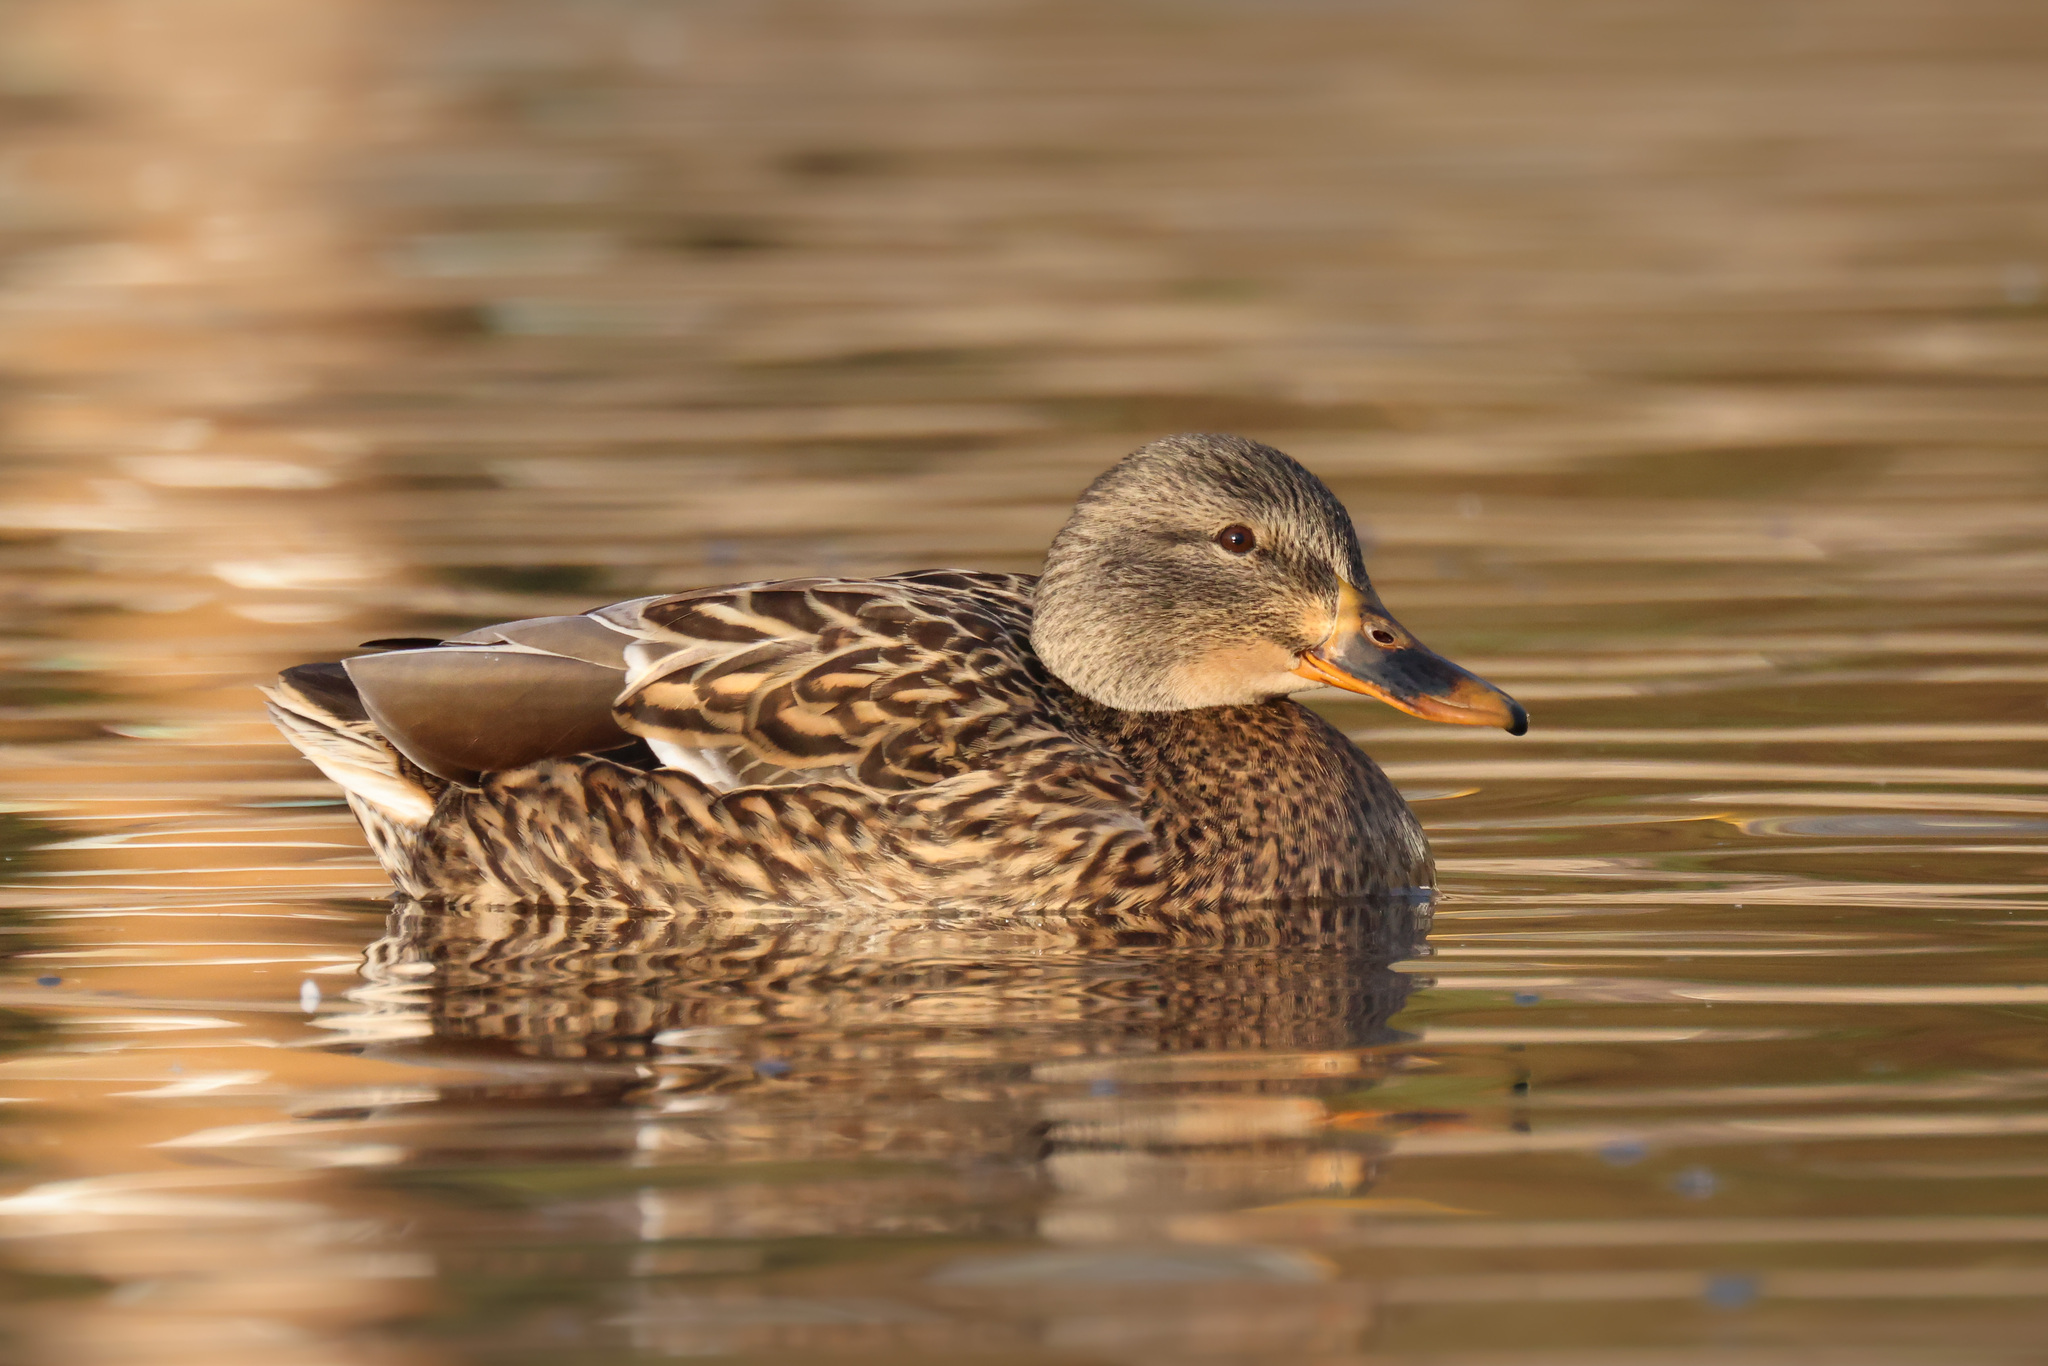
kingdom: Animalia
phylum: Chordata
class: Aves
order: Anseriformes
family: Anatidae
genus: Anas
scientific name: Anas platyrhynchos
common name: Mallard
